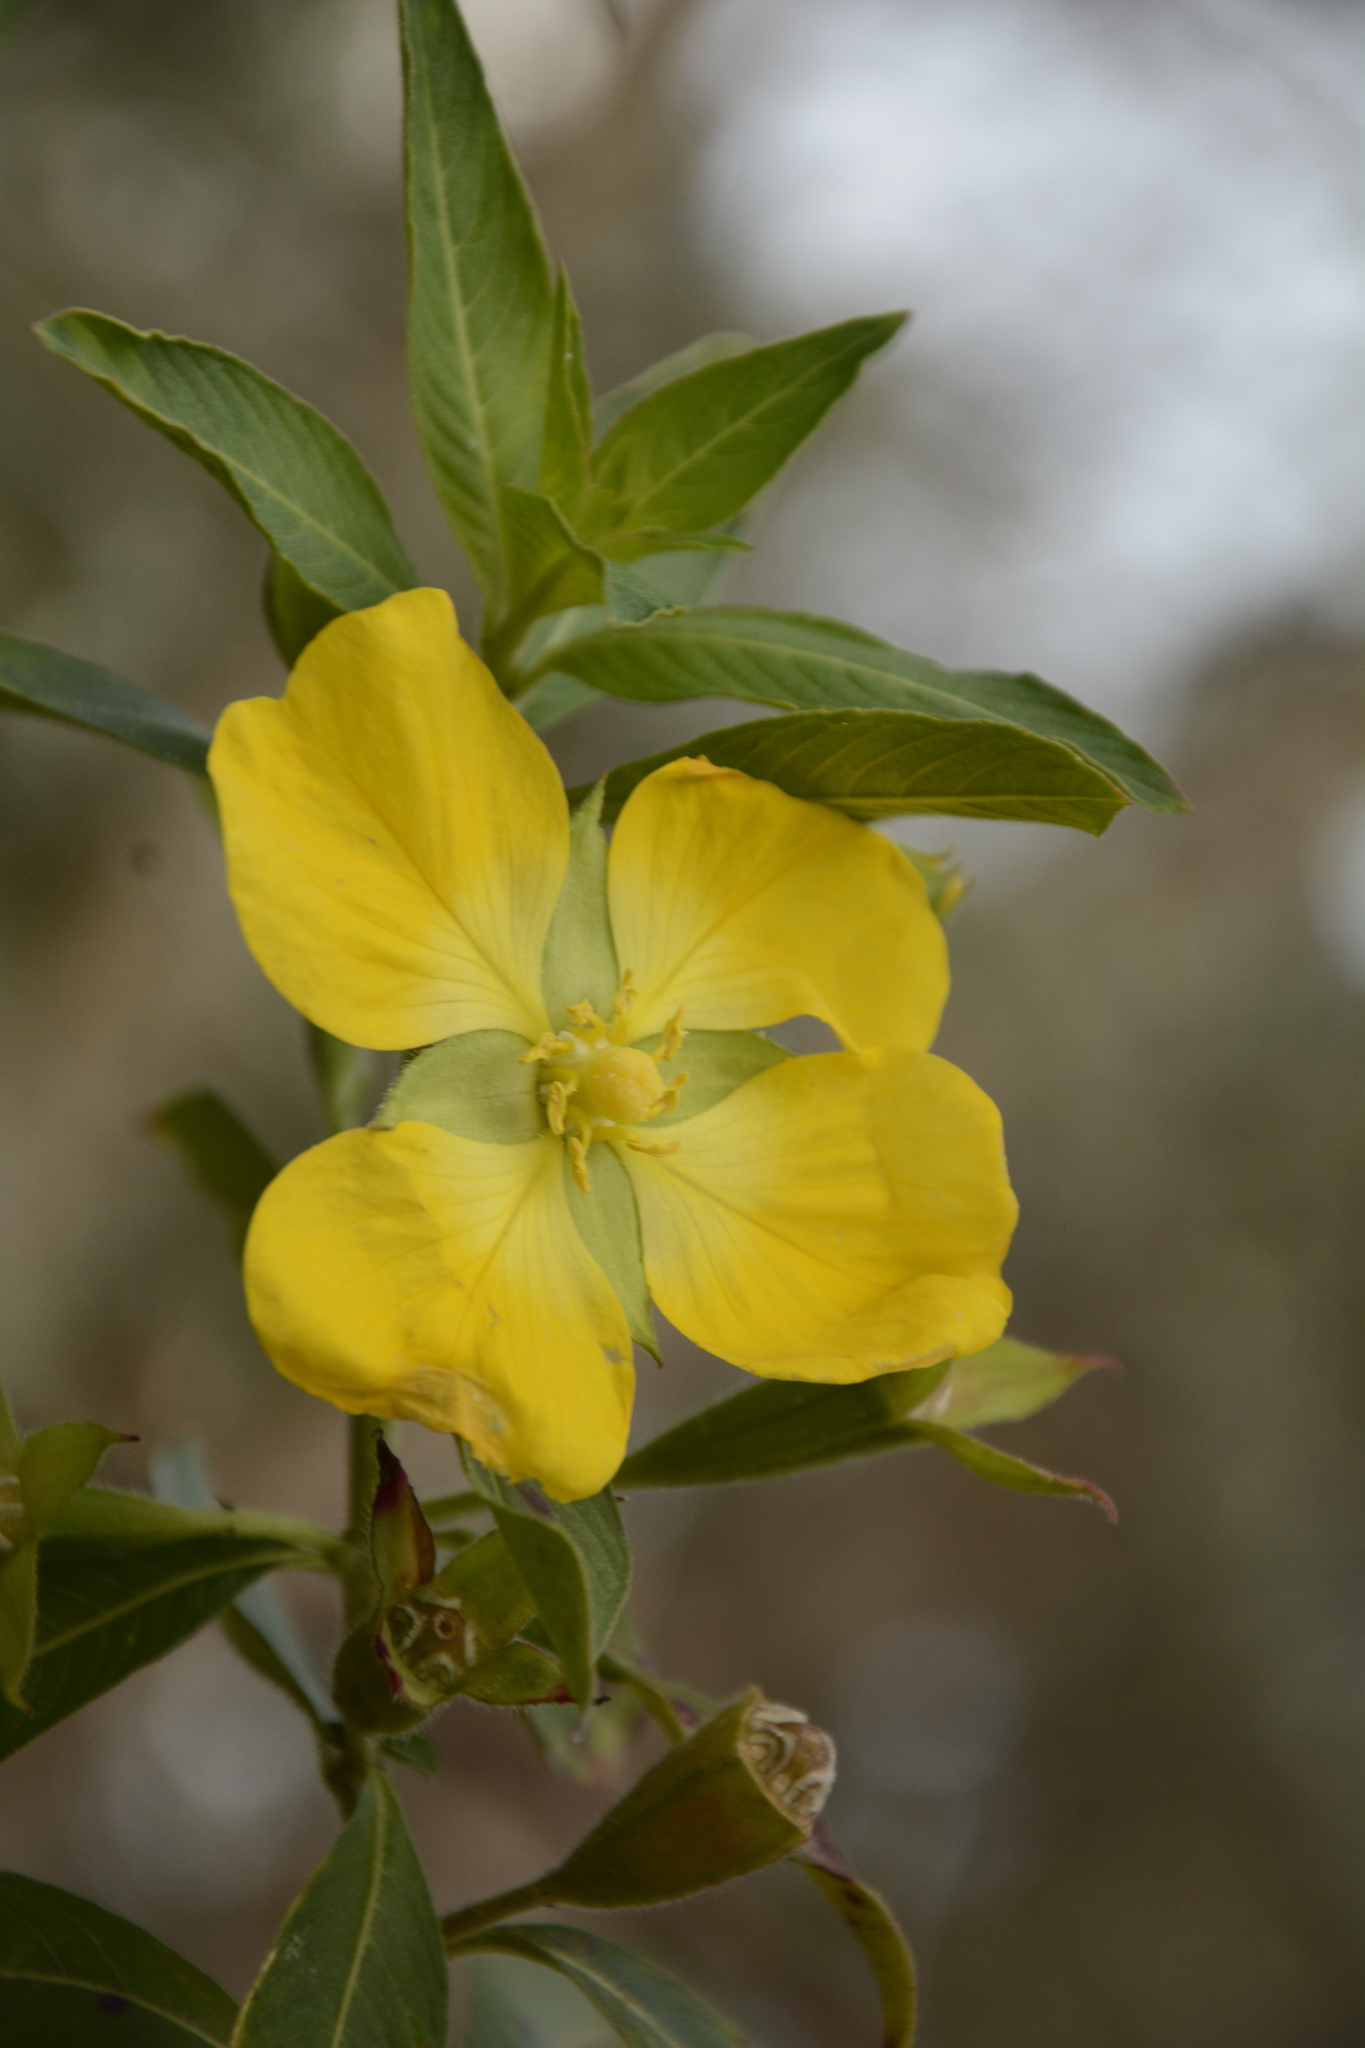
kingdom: Plantae
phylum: Tracheophyta
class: Magnoliopsida
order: Myrtales
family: Onagraceae
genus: Ludwigia
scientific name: Ludwigia peruviana
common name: Peruvian primrose-willow
